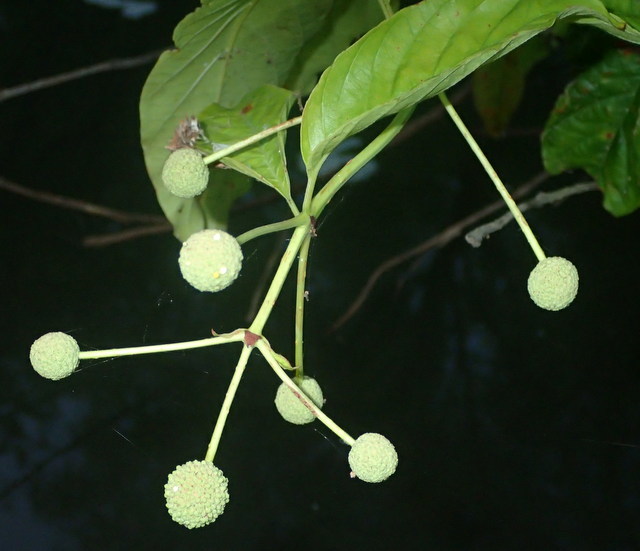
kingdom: Plantae
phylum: Tracheophyta
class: Magnoliopsida
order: Gentianales
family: Rubiaceae
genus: Cephalanthus
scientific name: Cephalanthus occidentalis
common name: Button-willow
